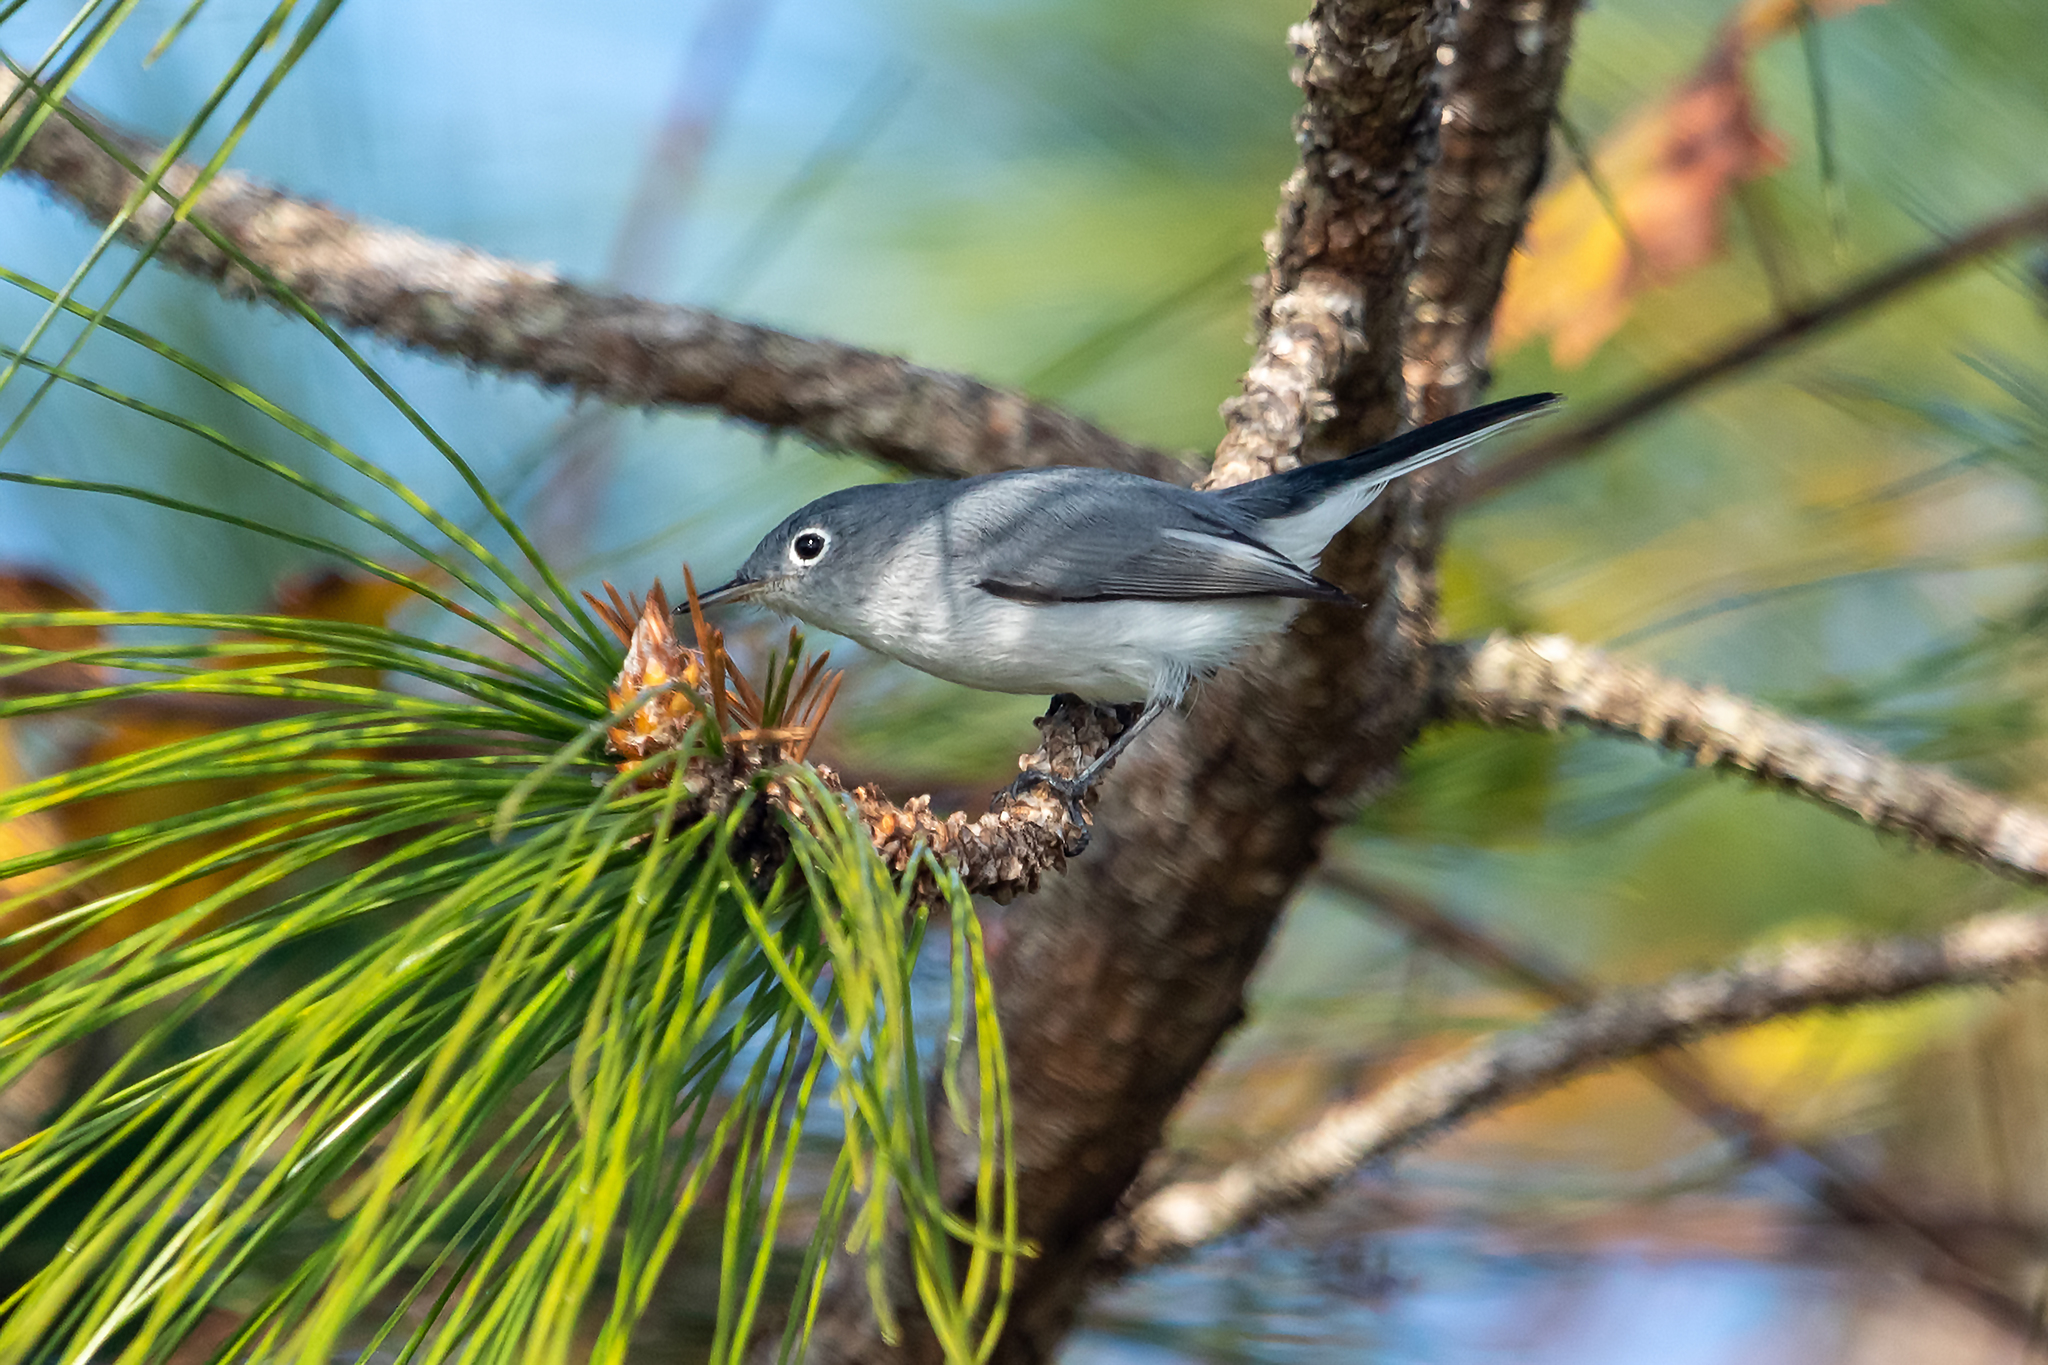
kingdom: Animalia
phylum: Chordata
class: Aves
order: Passeriformes
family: Polioptilidae
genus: Polioptila
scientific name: Polioptila caerulea
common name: Blue-gray gnatcatcher
